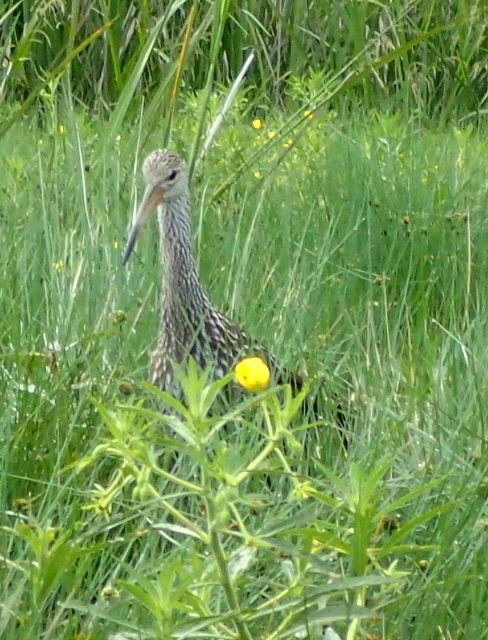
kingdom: Animalia
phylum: Chordata
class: Aves
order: Gruiformes
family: Aramidae
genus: Aramus
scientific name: Aramus guarauna
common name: Limpkin
